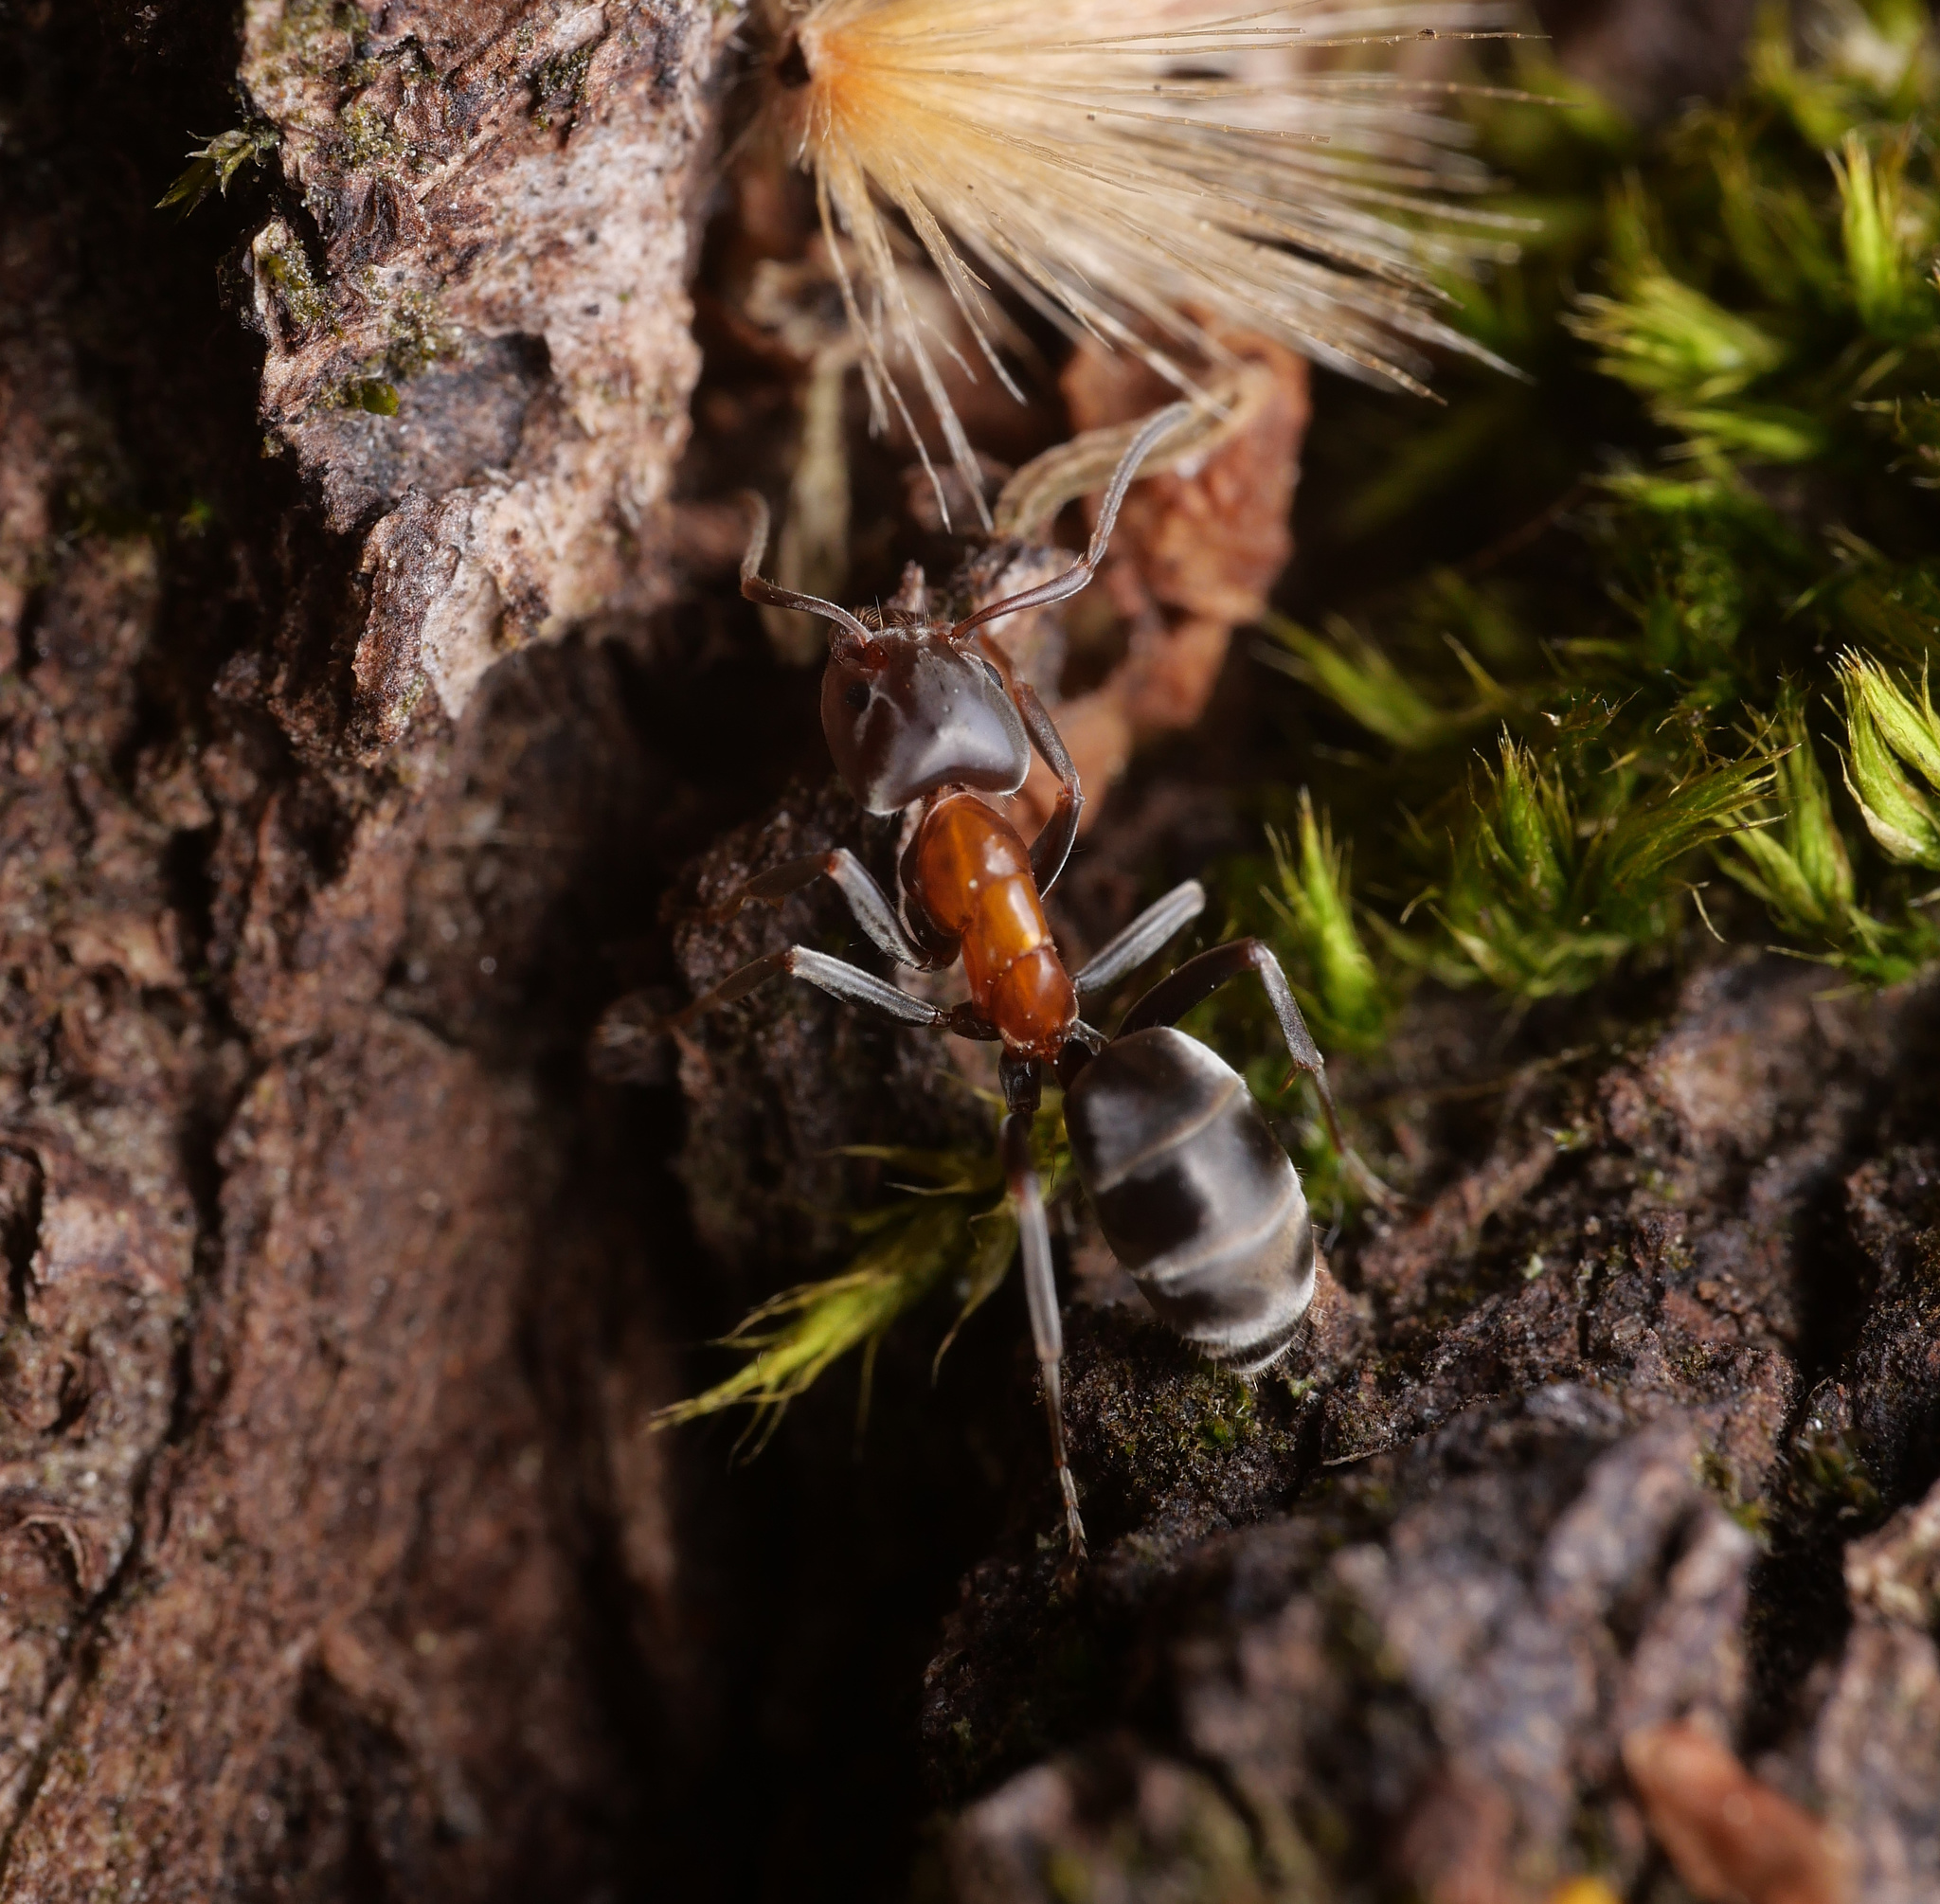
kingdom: Animalia
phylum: Arthropoda
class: Insecta
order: Hymenoptera
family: Formicidae
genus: Liometopum
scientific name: Liometopum microcephalum
